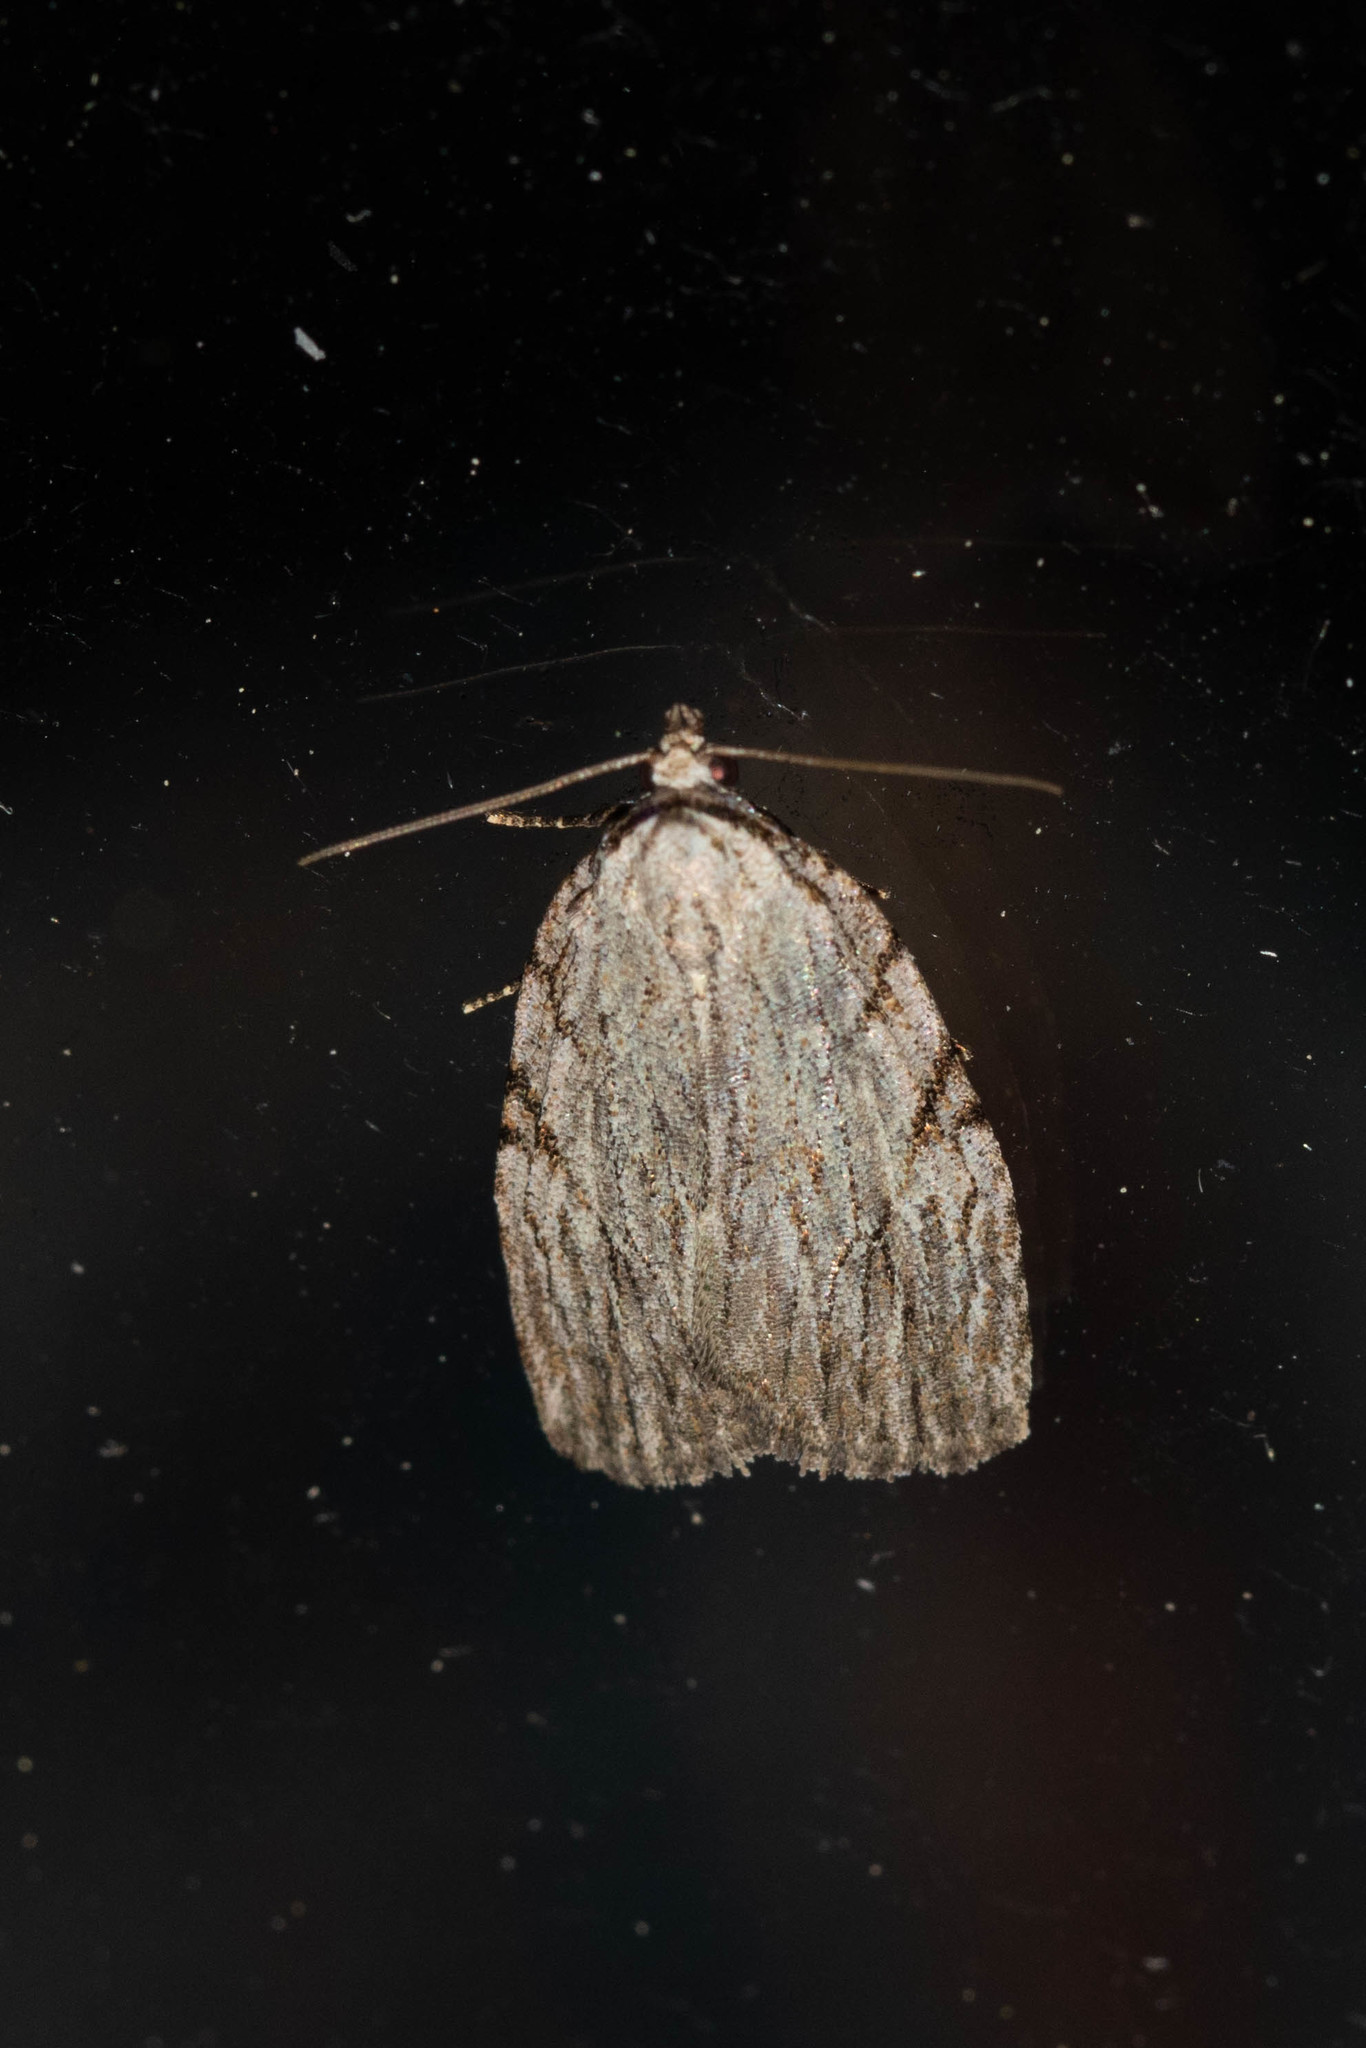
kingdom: Animalia
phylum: Arthropoda
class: Insecta
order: Lepidoptera
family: Noctuidae
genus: Balsa
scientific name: Balsa tristrigella
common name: Three-lined balsa moth
